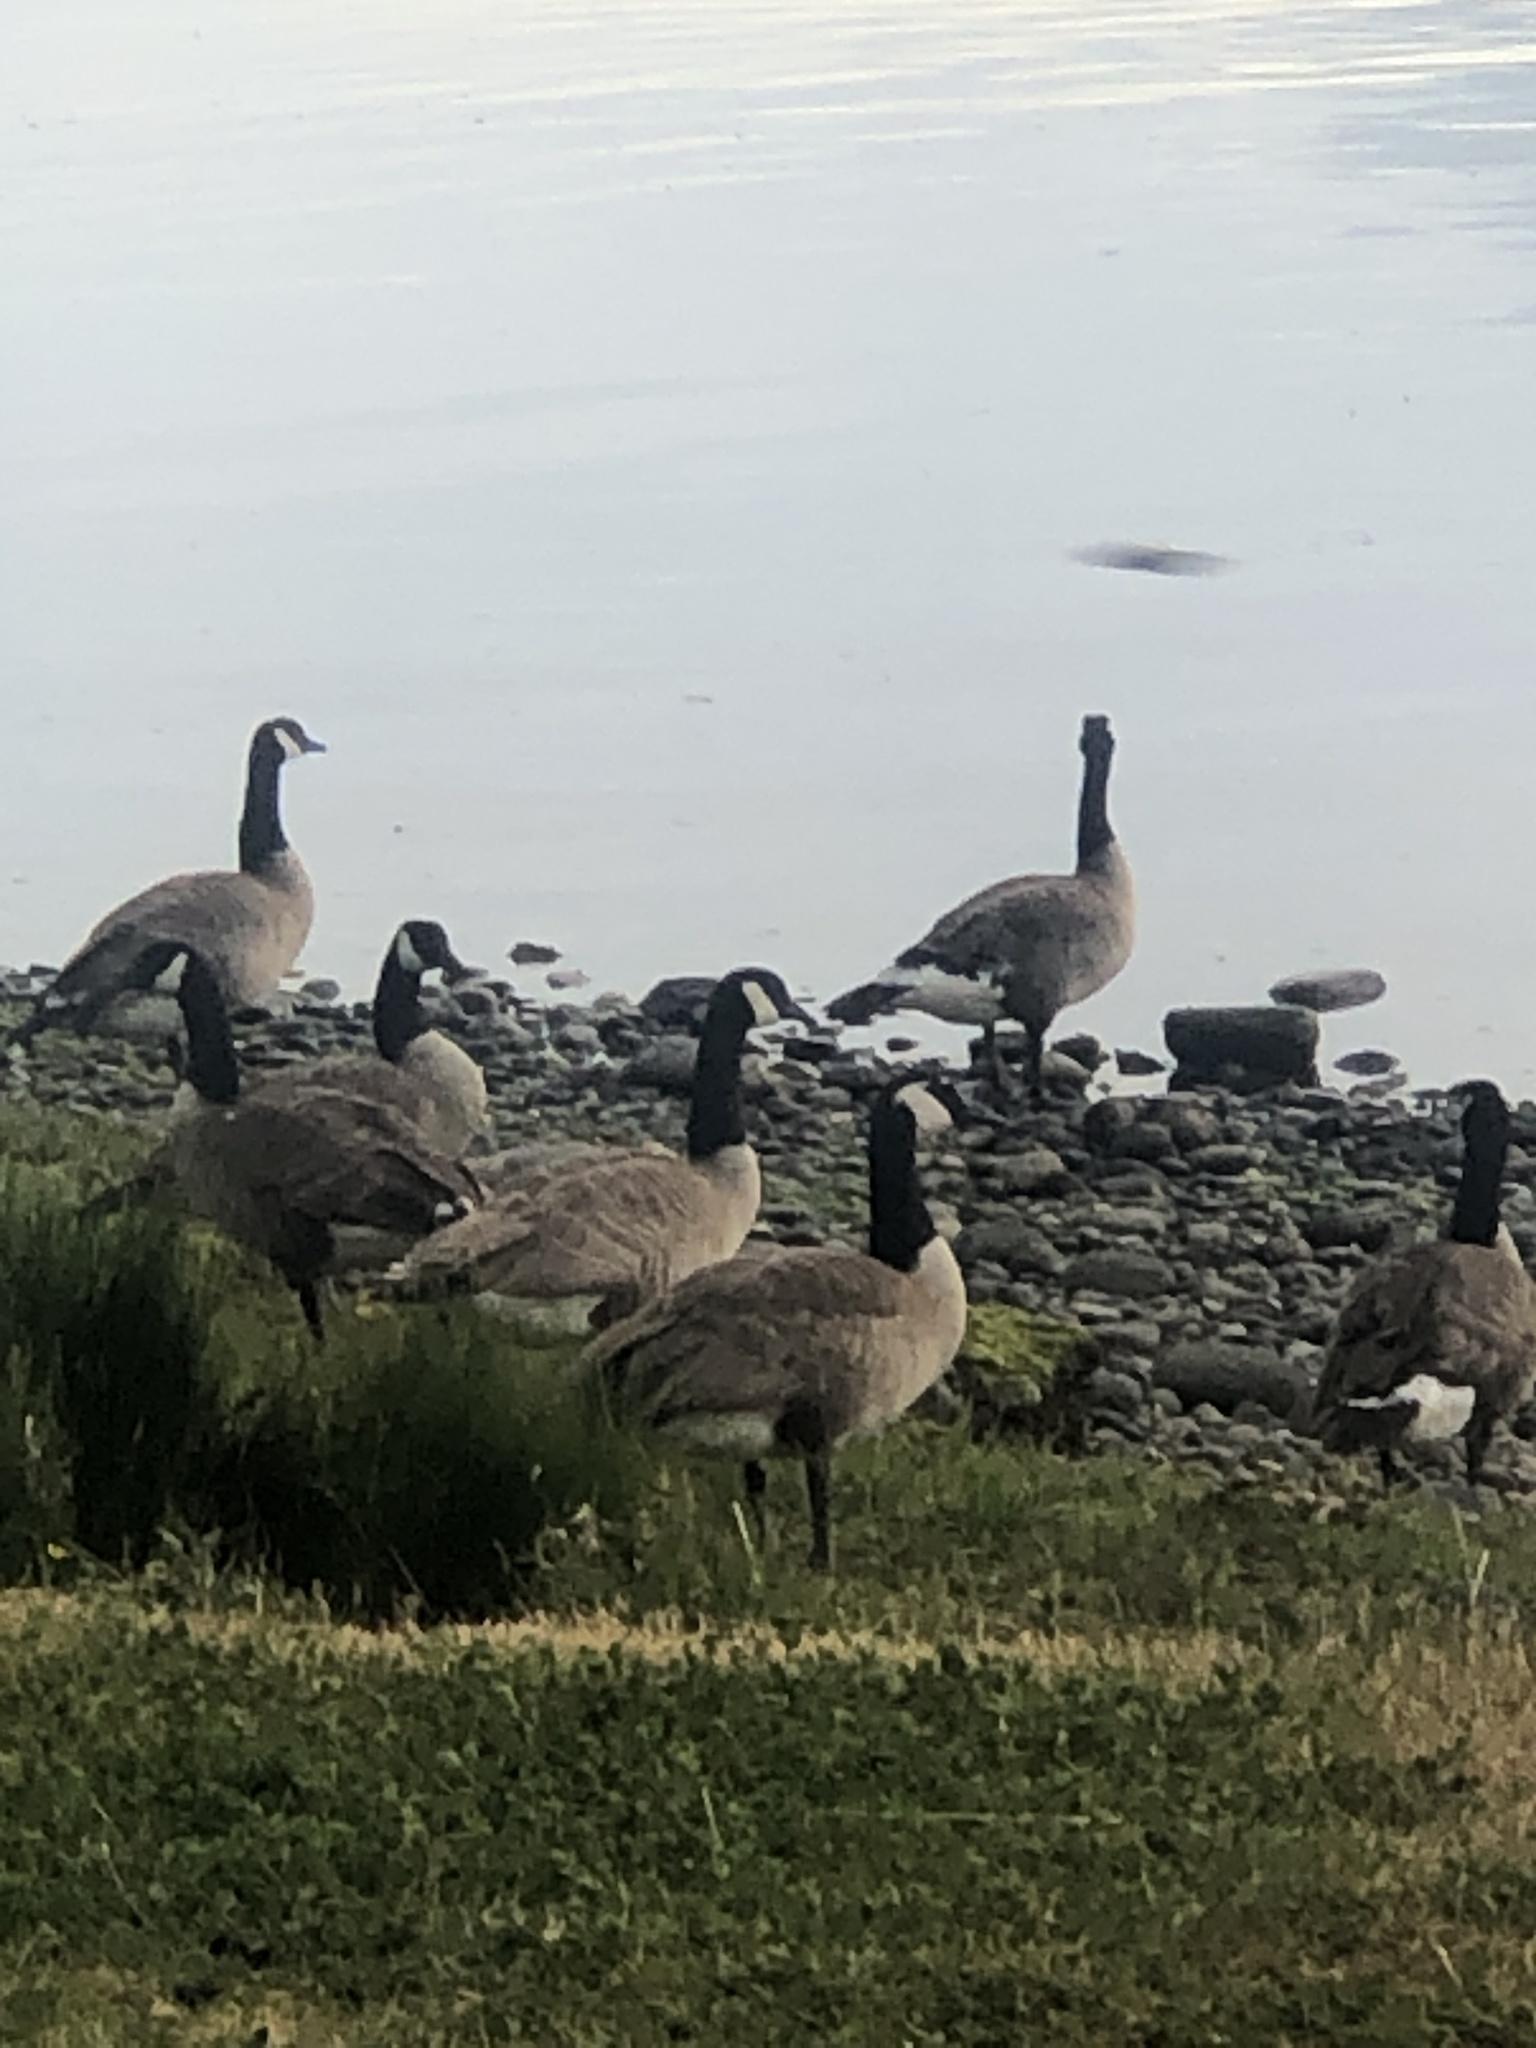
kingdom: Animalia
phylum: Chordata
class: Aves
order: Anseriformes
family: Anatidae
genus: Branta
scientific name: Branta canadensis
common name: Canada goose
